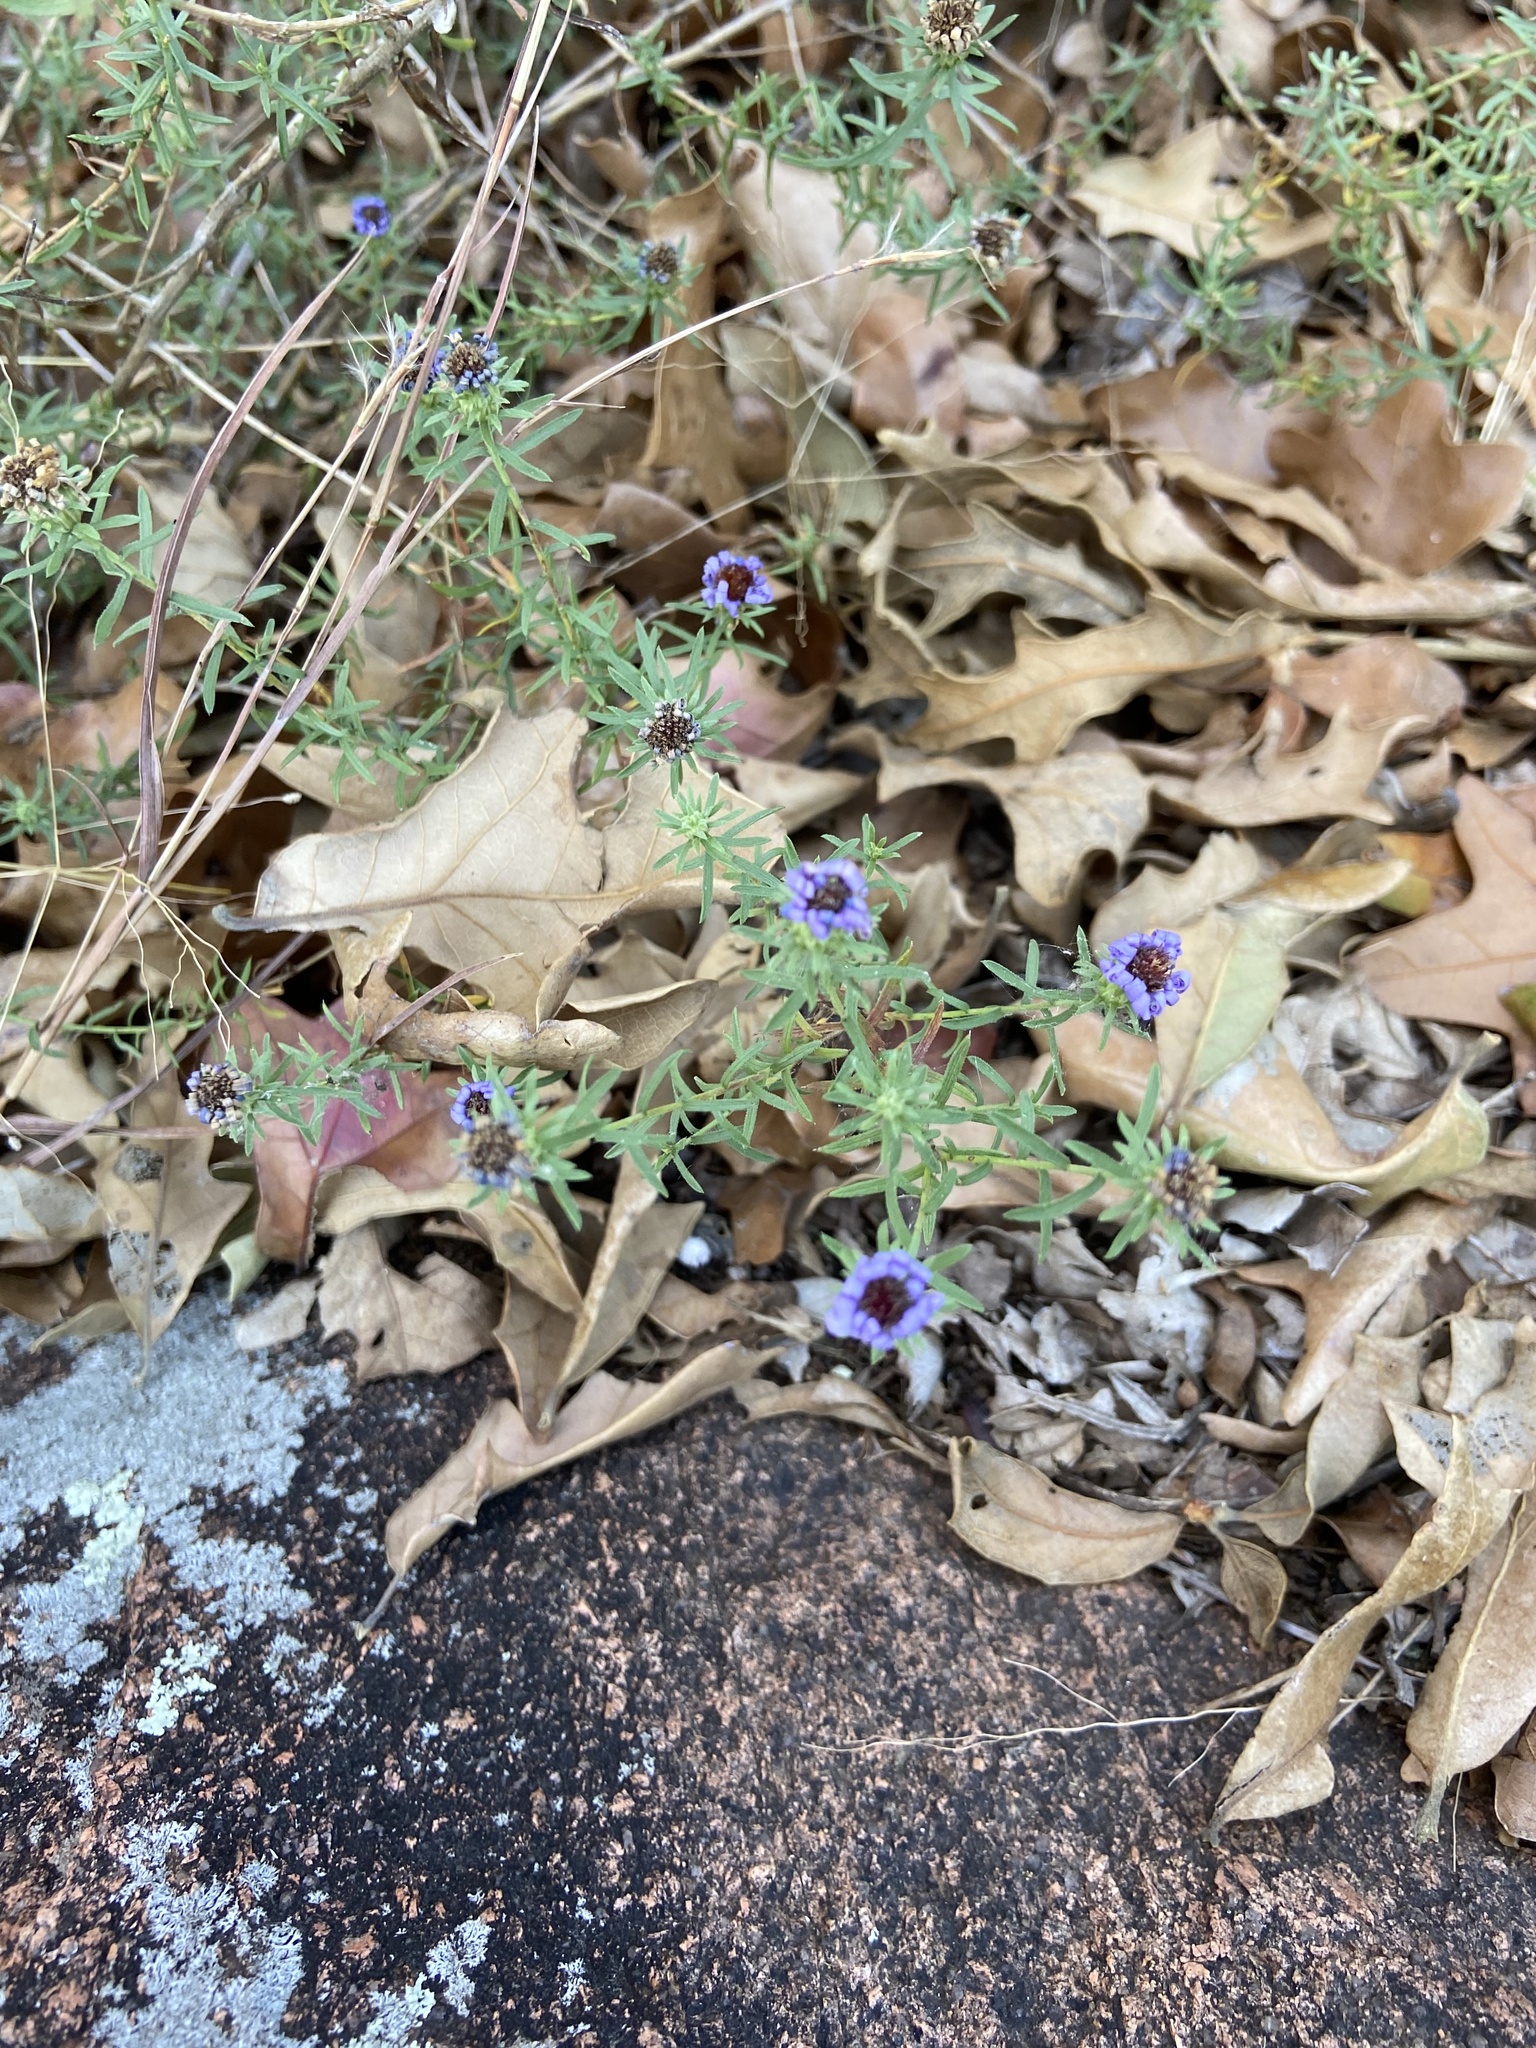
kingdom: Plantae
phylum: Tracheophyta
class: Magnoliopsida
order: Asterales
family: Asteraceae
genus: Symphyotrichum
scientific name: Symphyotrichum oblongifolium
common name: Aromatic aster
